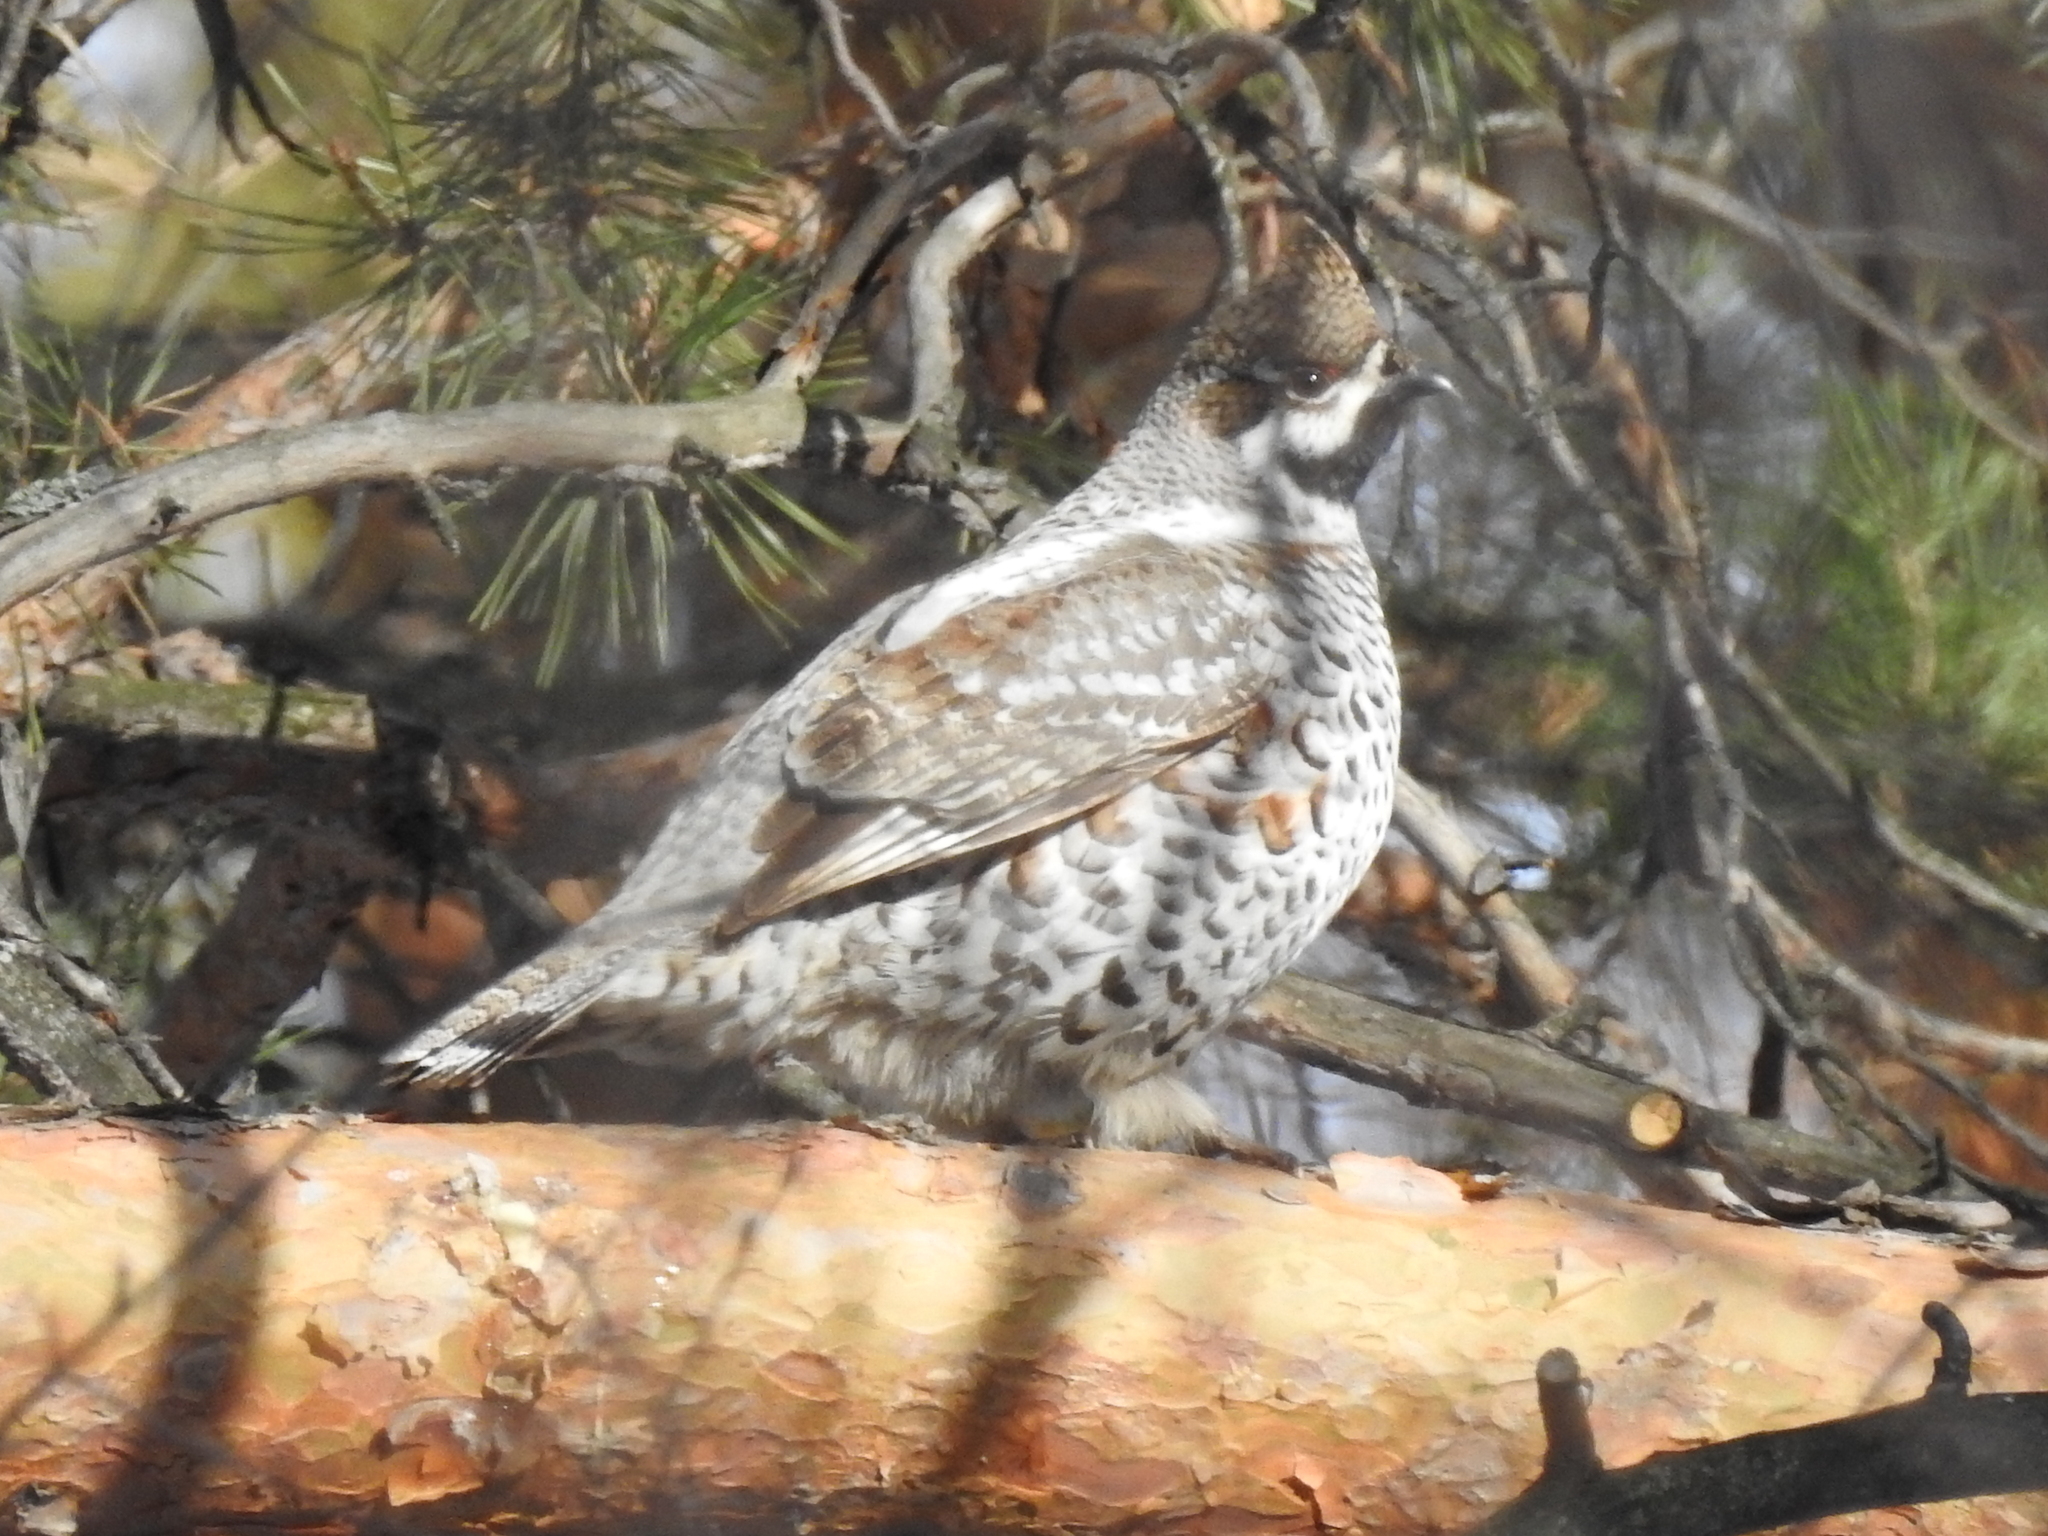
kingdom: Animalia
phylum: Chordata
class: Aves
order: Galliformes
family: Phasianidae
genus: Tetrastes
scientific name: Tetrastes bonasia
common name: Hazel grouse
